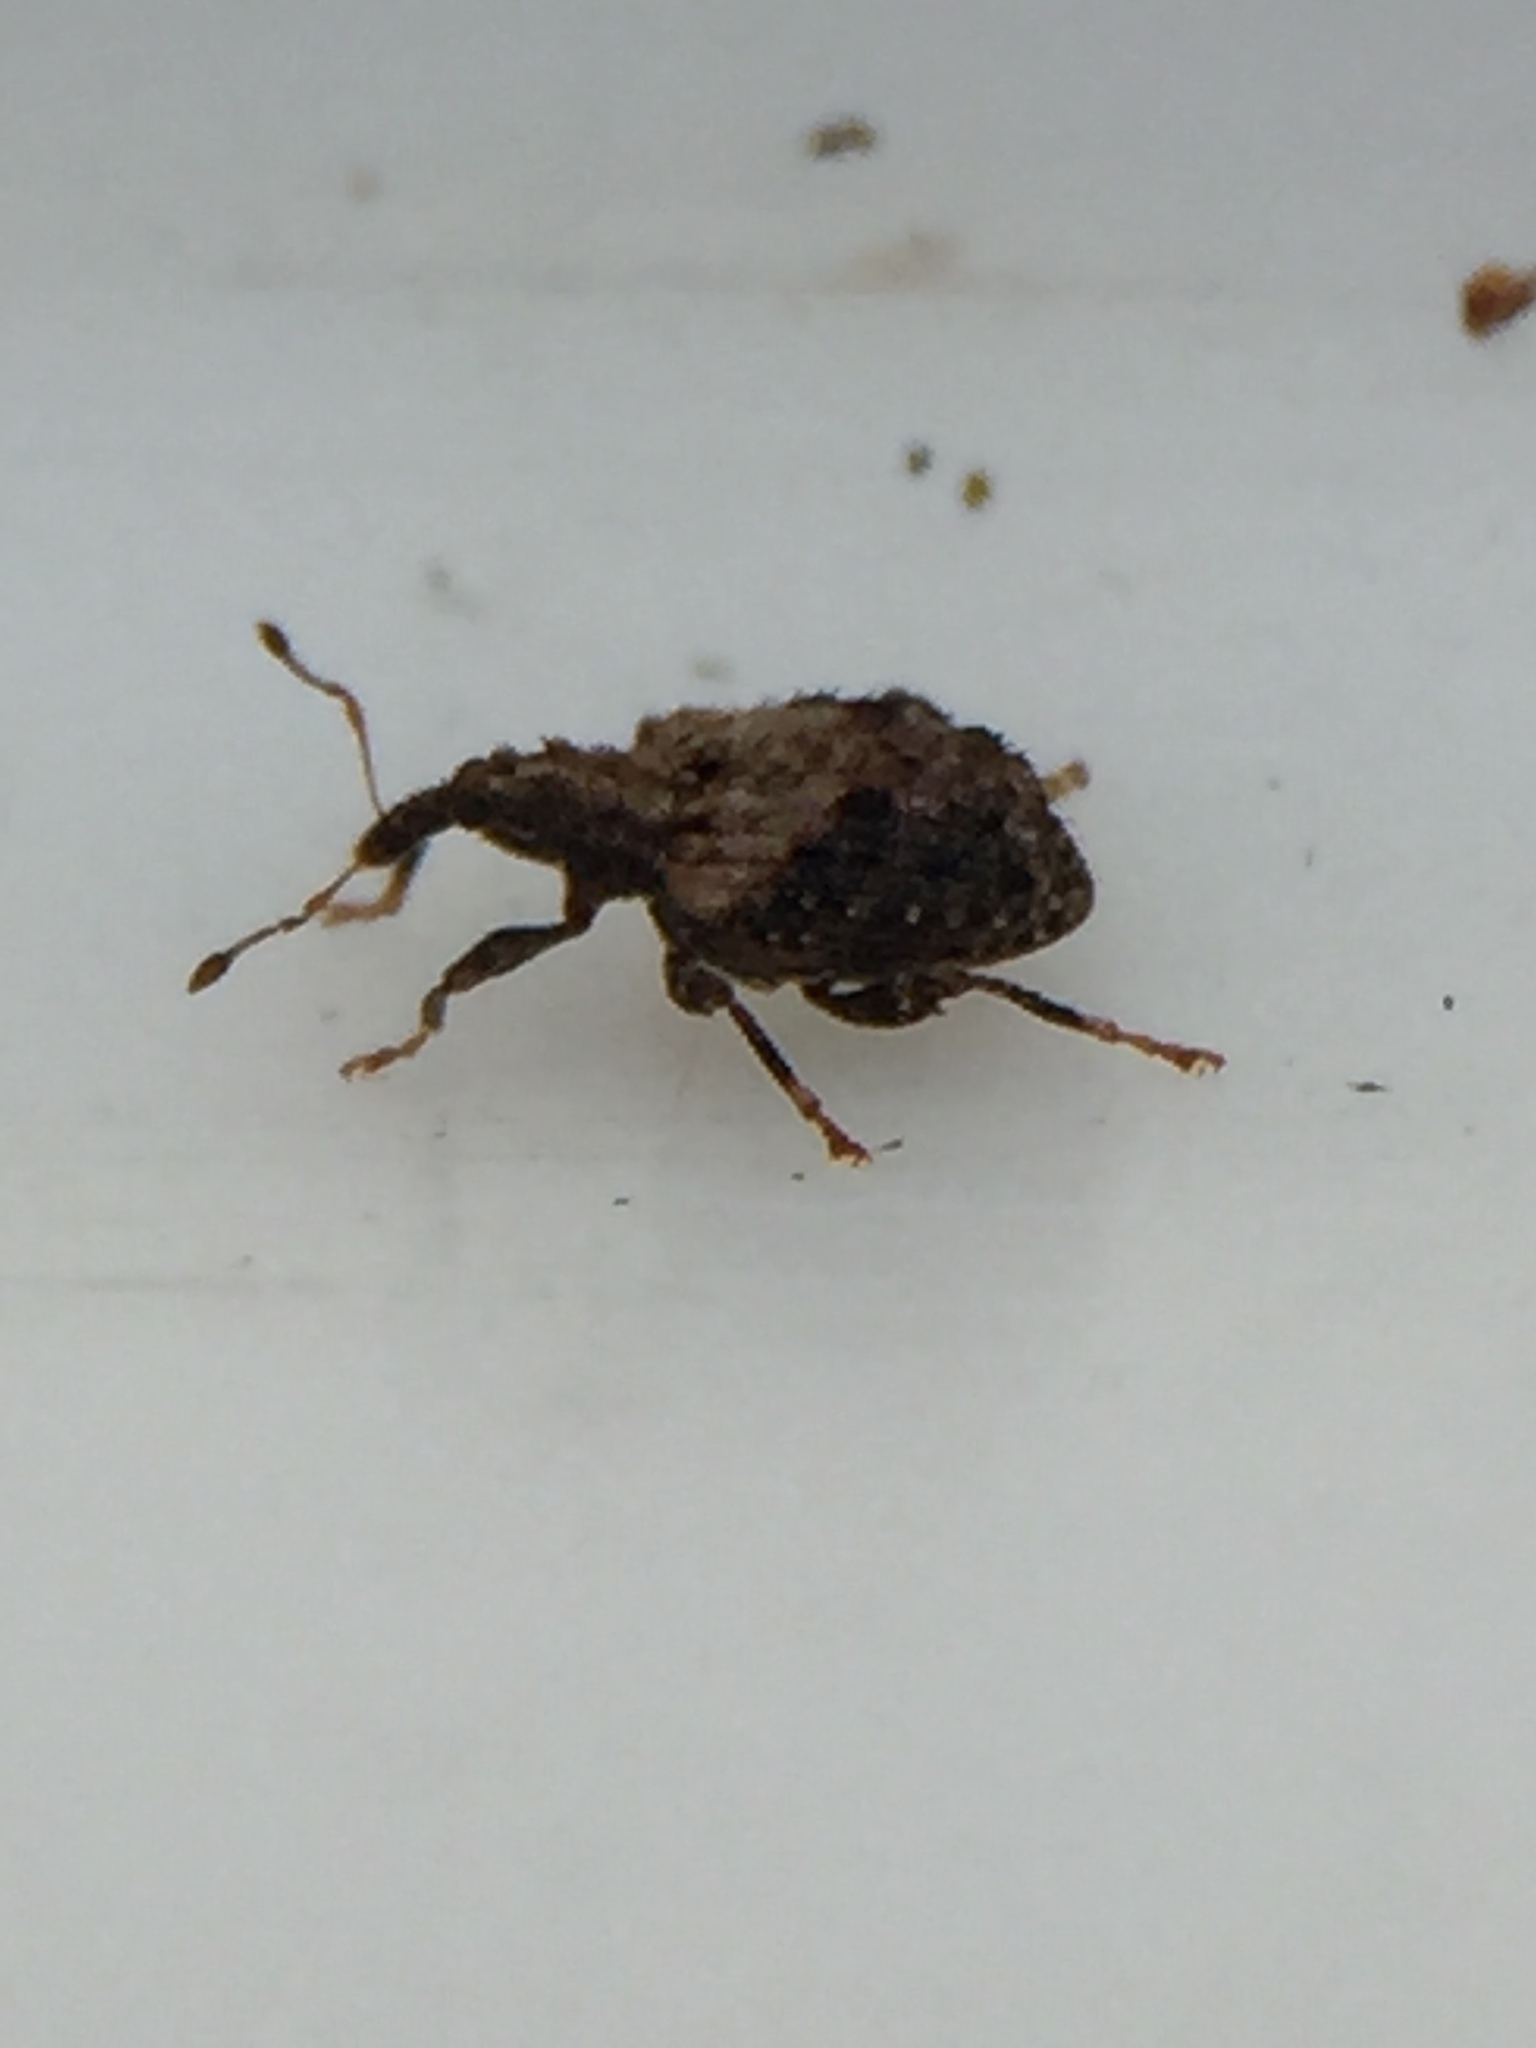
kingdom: Animalia
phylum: Arthropoda
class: Insecta
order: Coleoptera
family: Curculionidae
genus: Tysius
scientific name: Tysius bicornis
